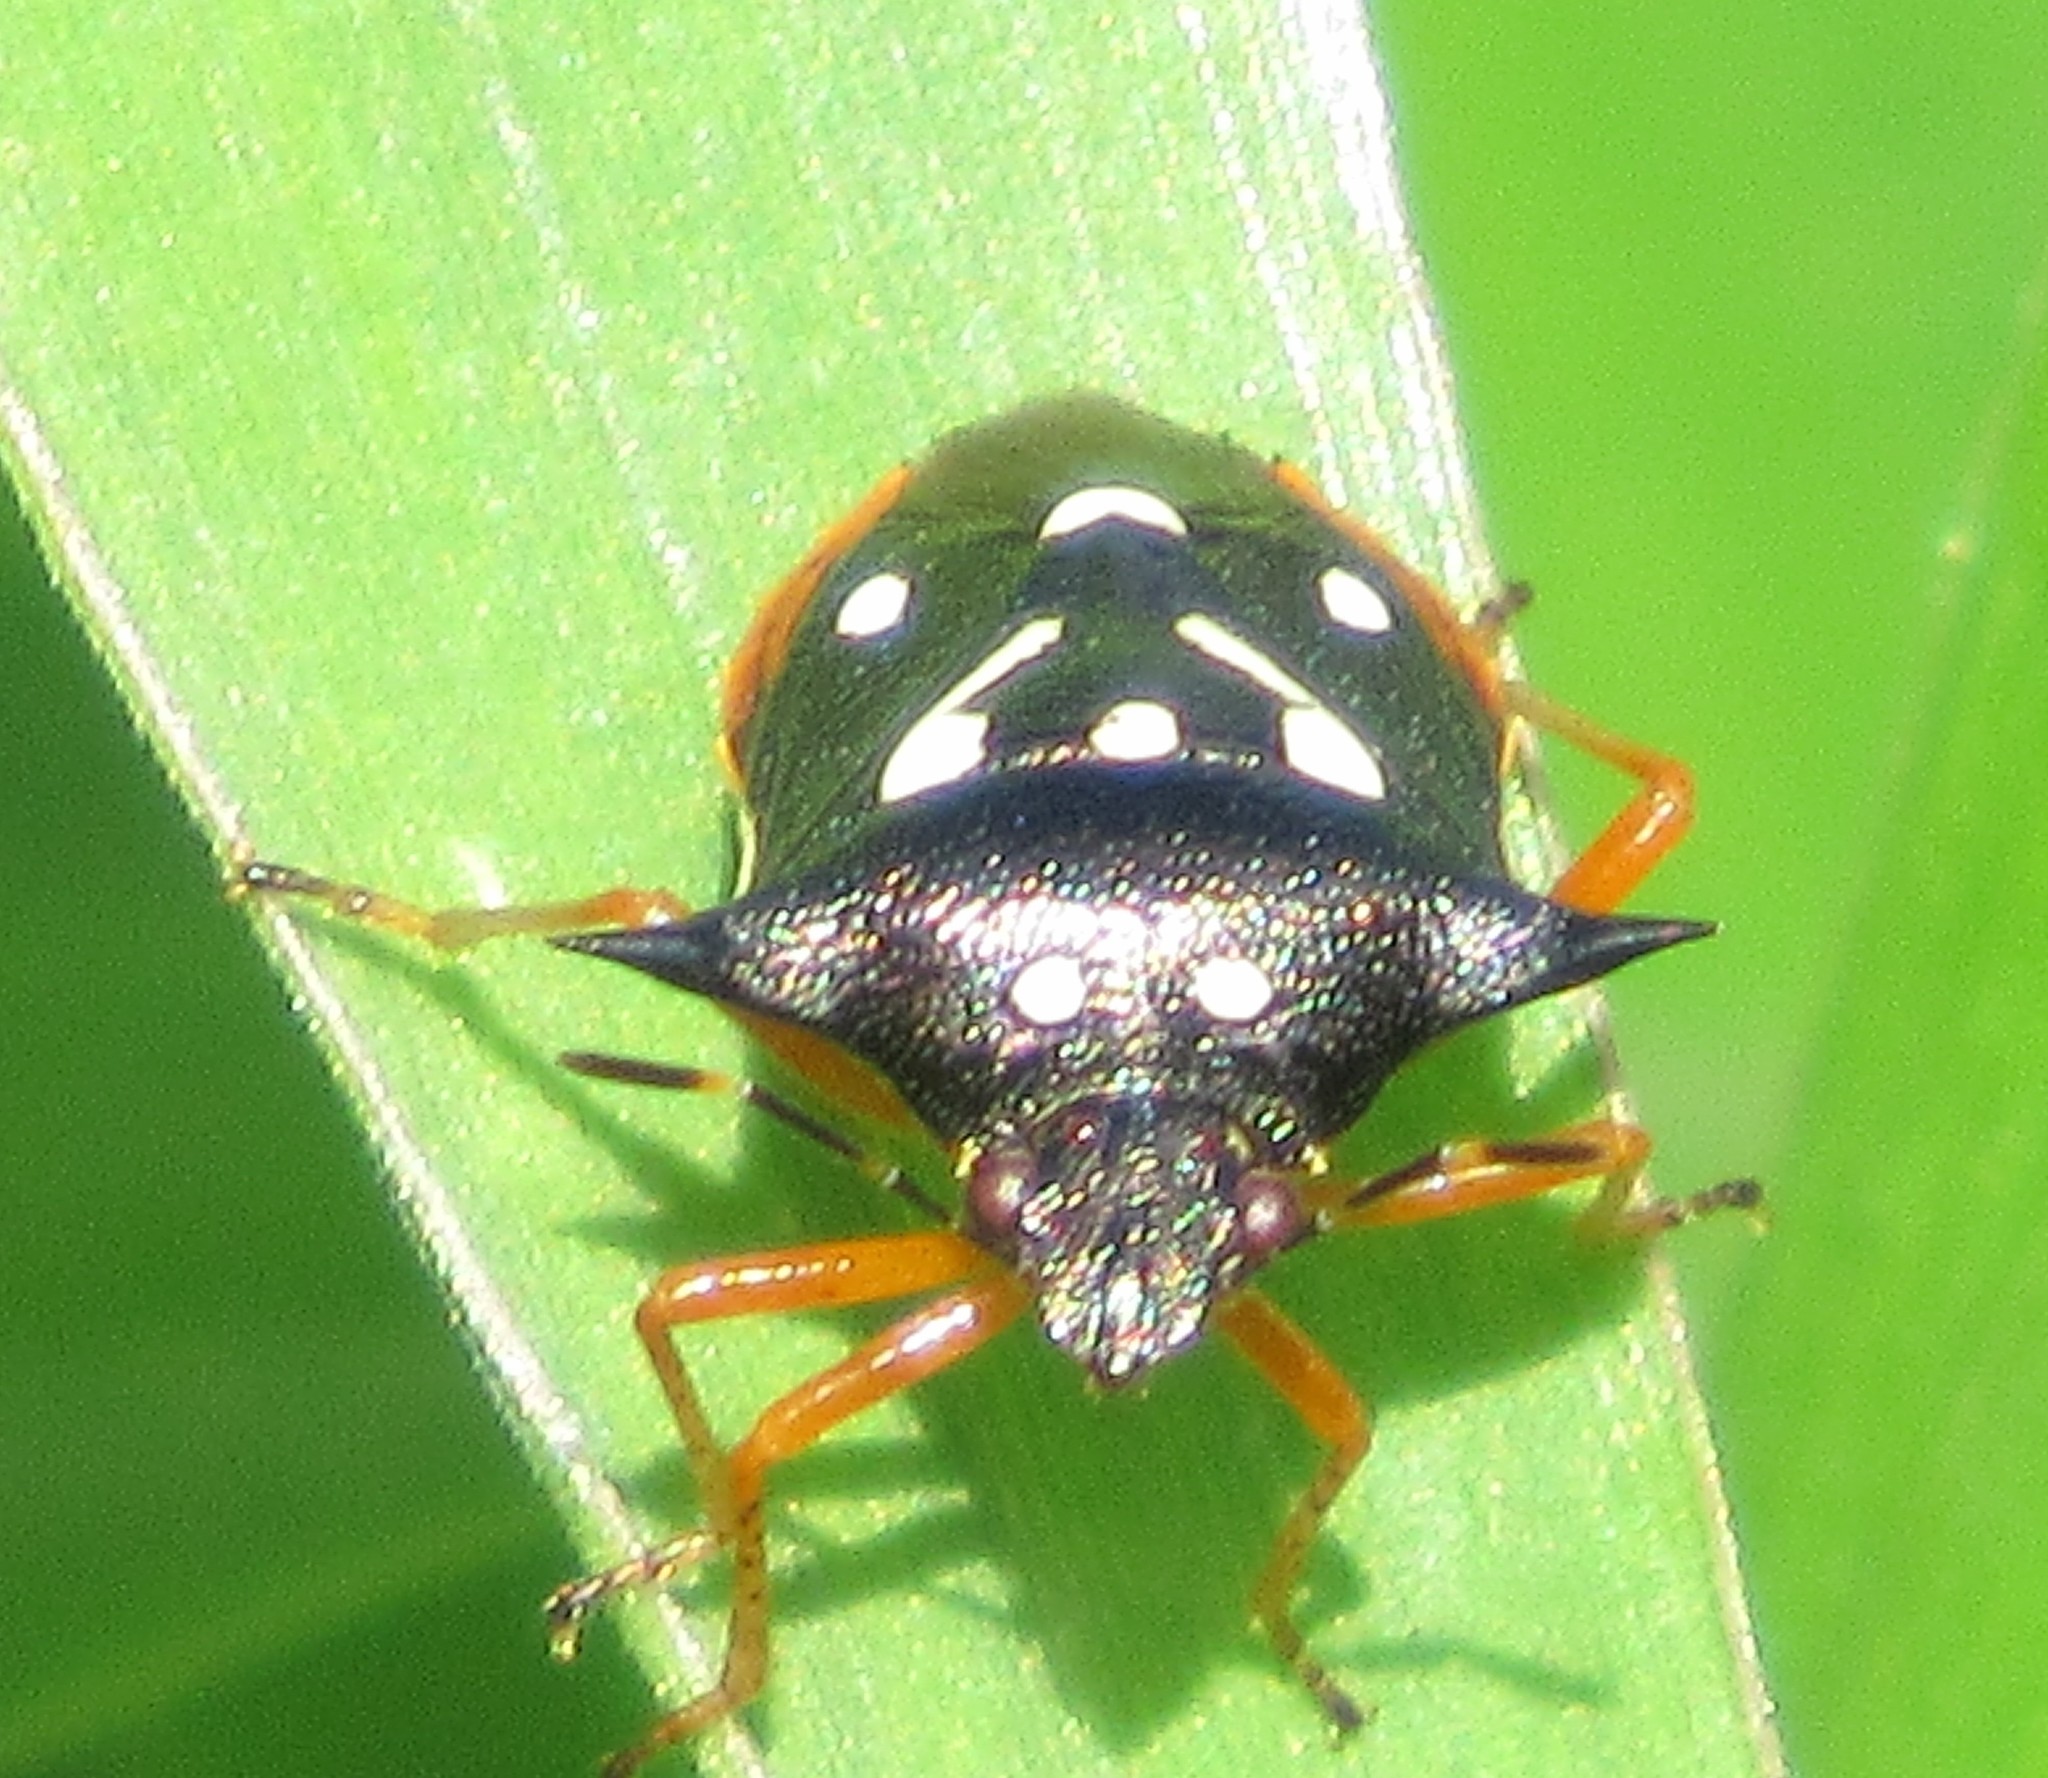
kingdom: Animalia
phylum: Arthropoda
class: Insecta
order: Hemiptera
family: Pentatomidae
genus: Mormidea
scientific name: Mormidea v-luteum
